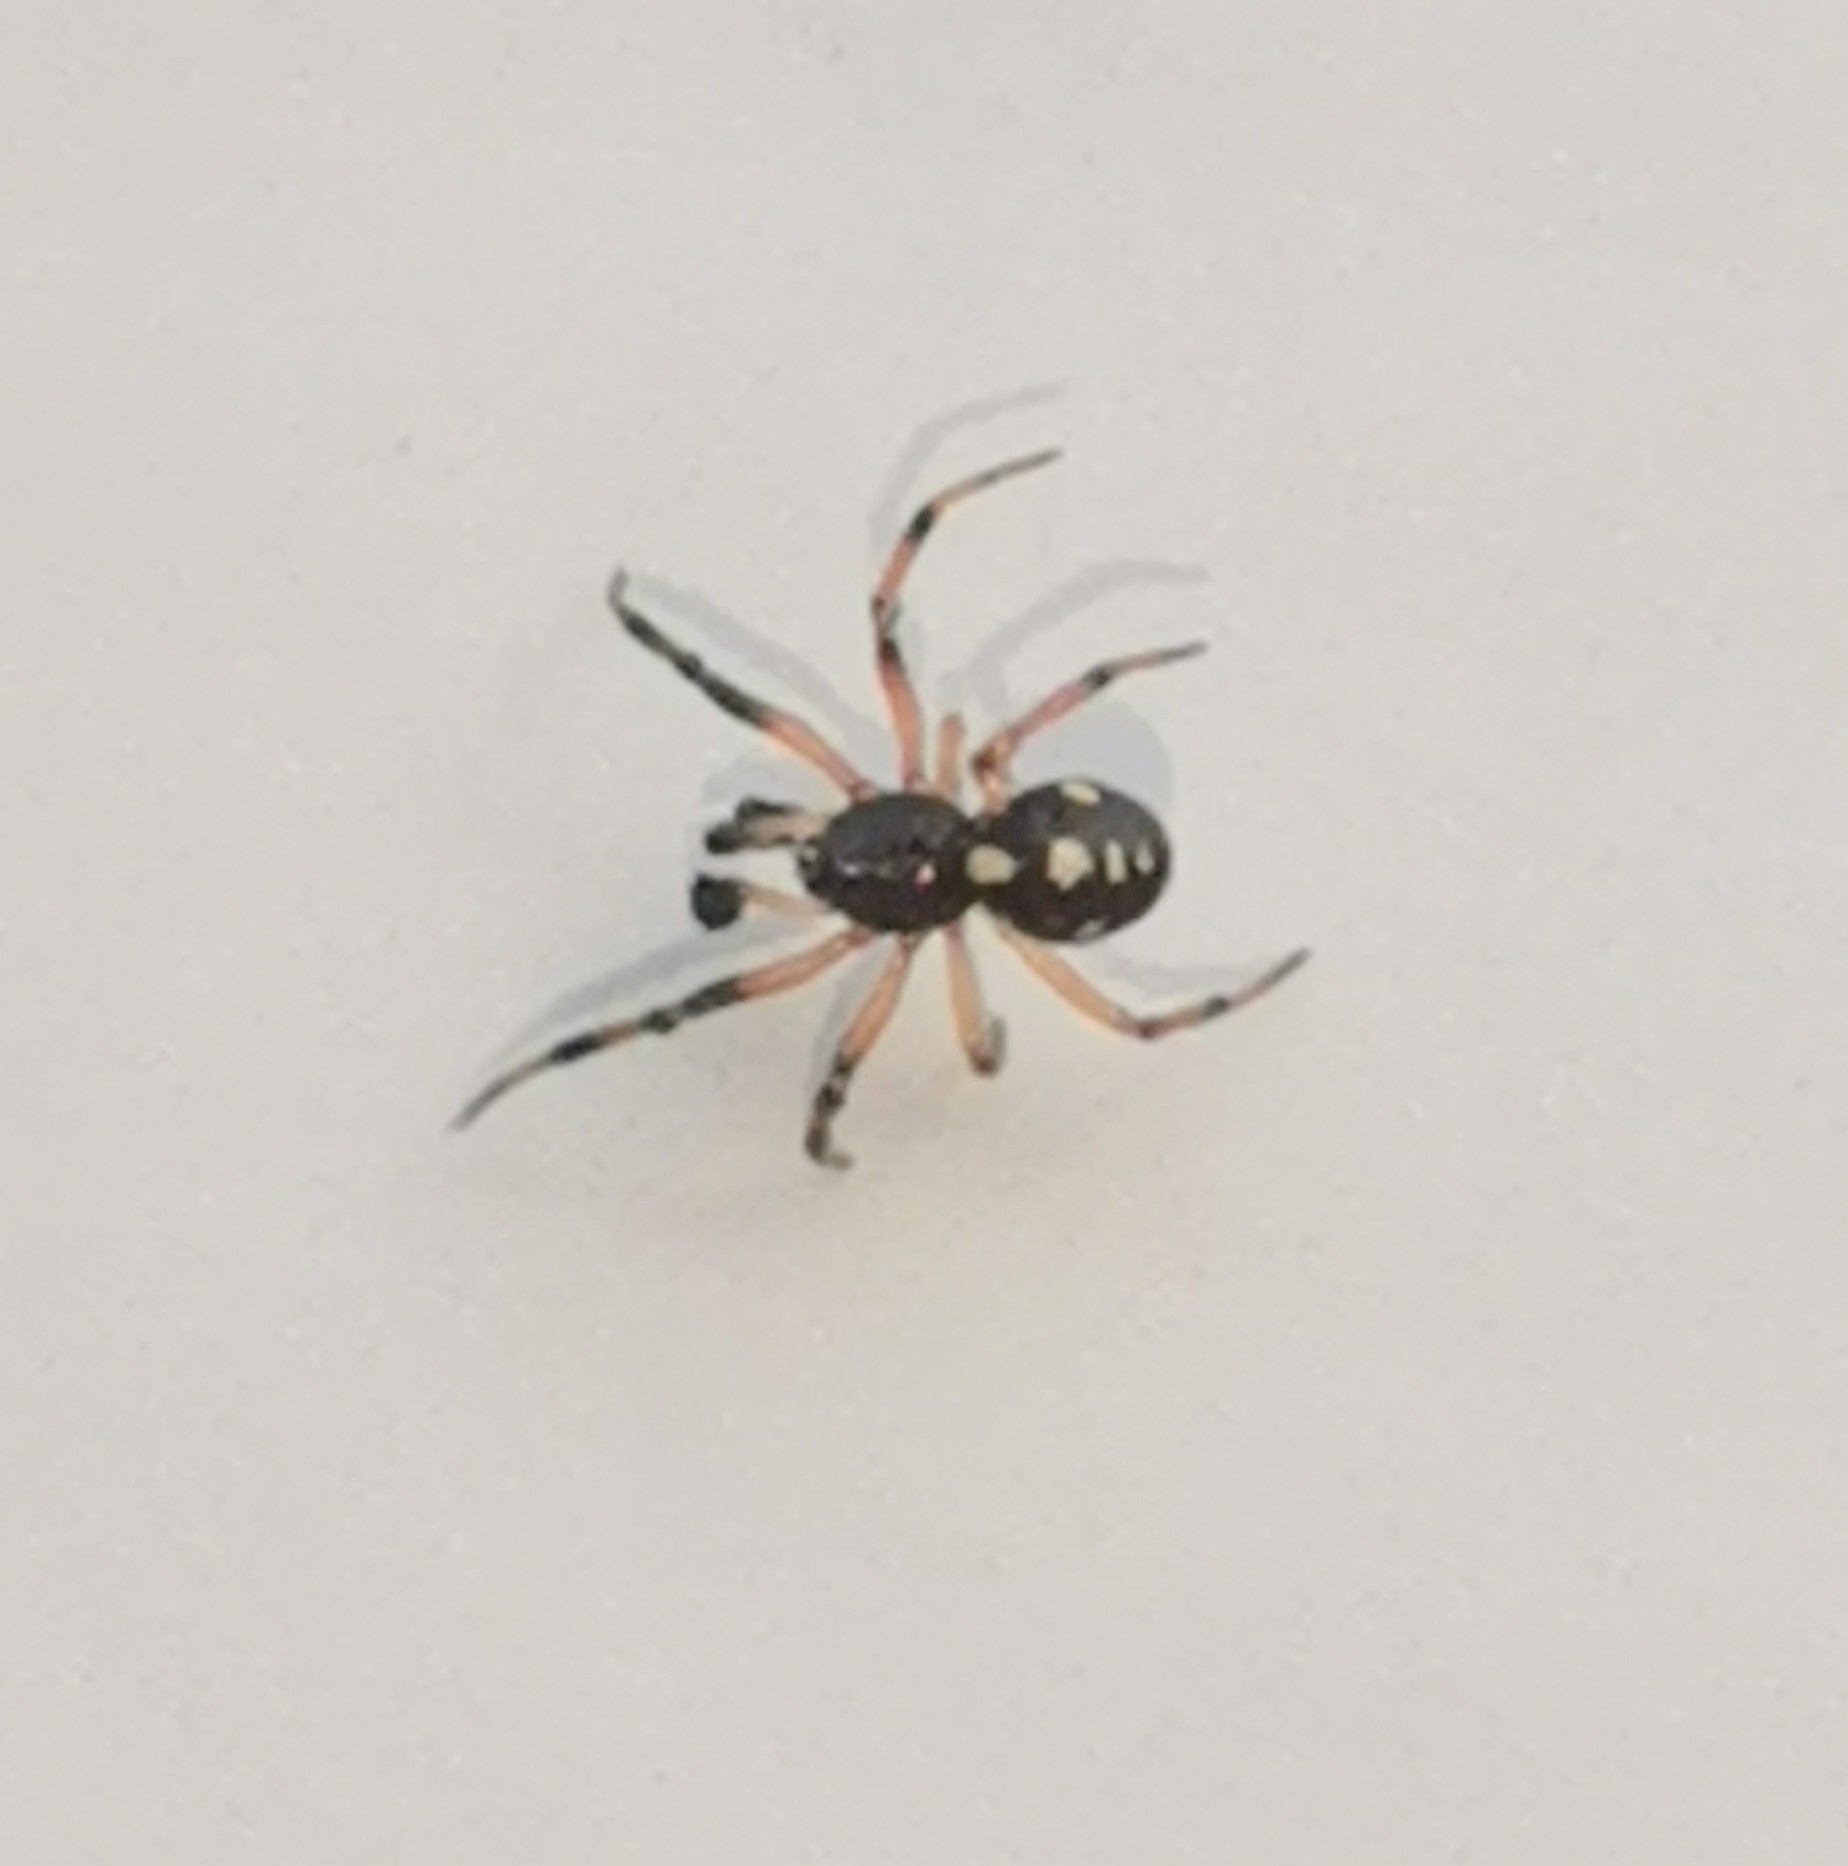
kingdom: Animalia
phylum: Arthropoda
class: Arachnida
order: Araneae
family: Theridiidae
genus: Crustulina
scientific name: Crustulina guttata
